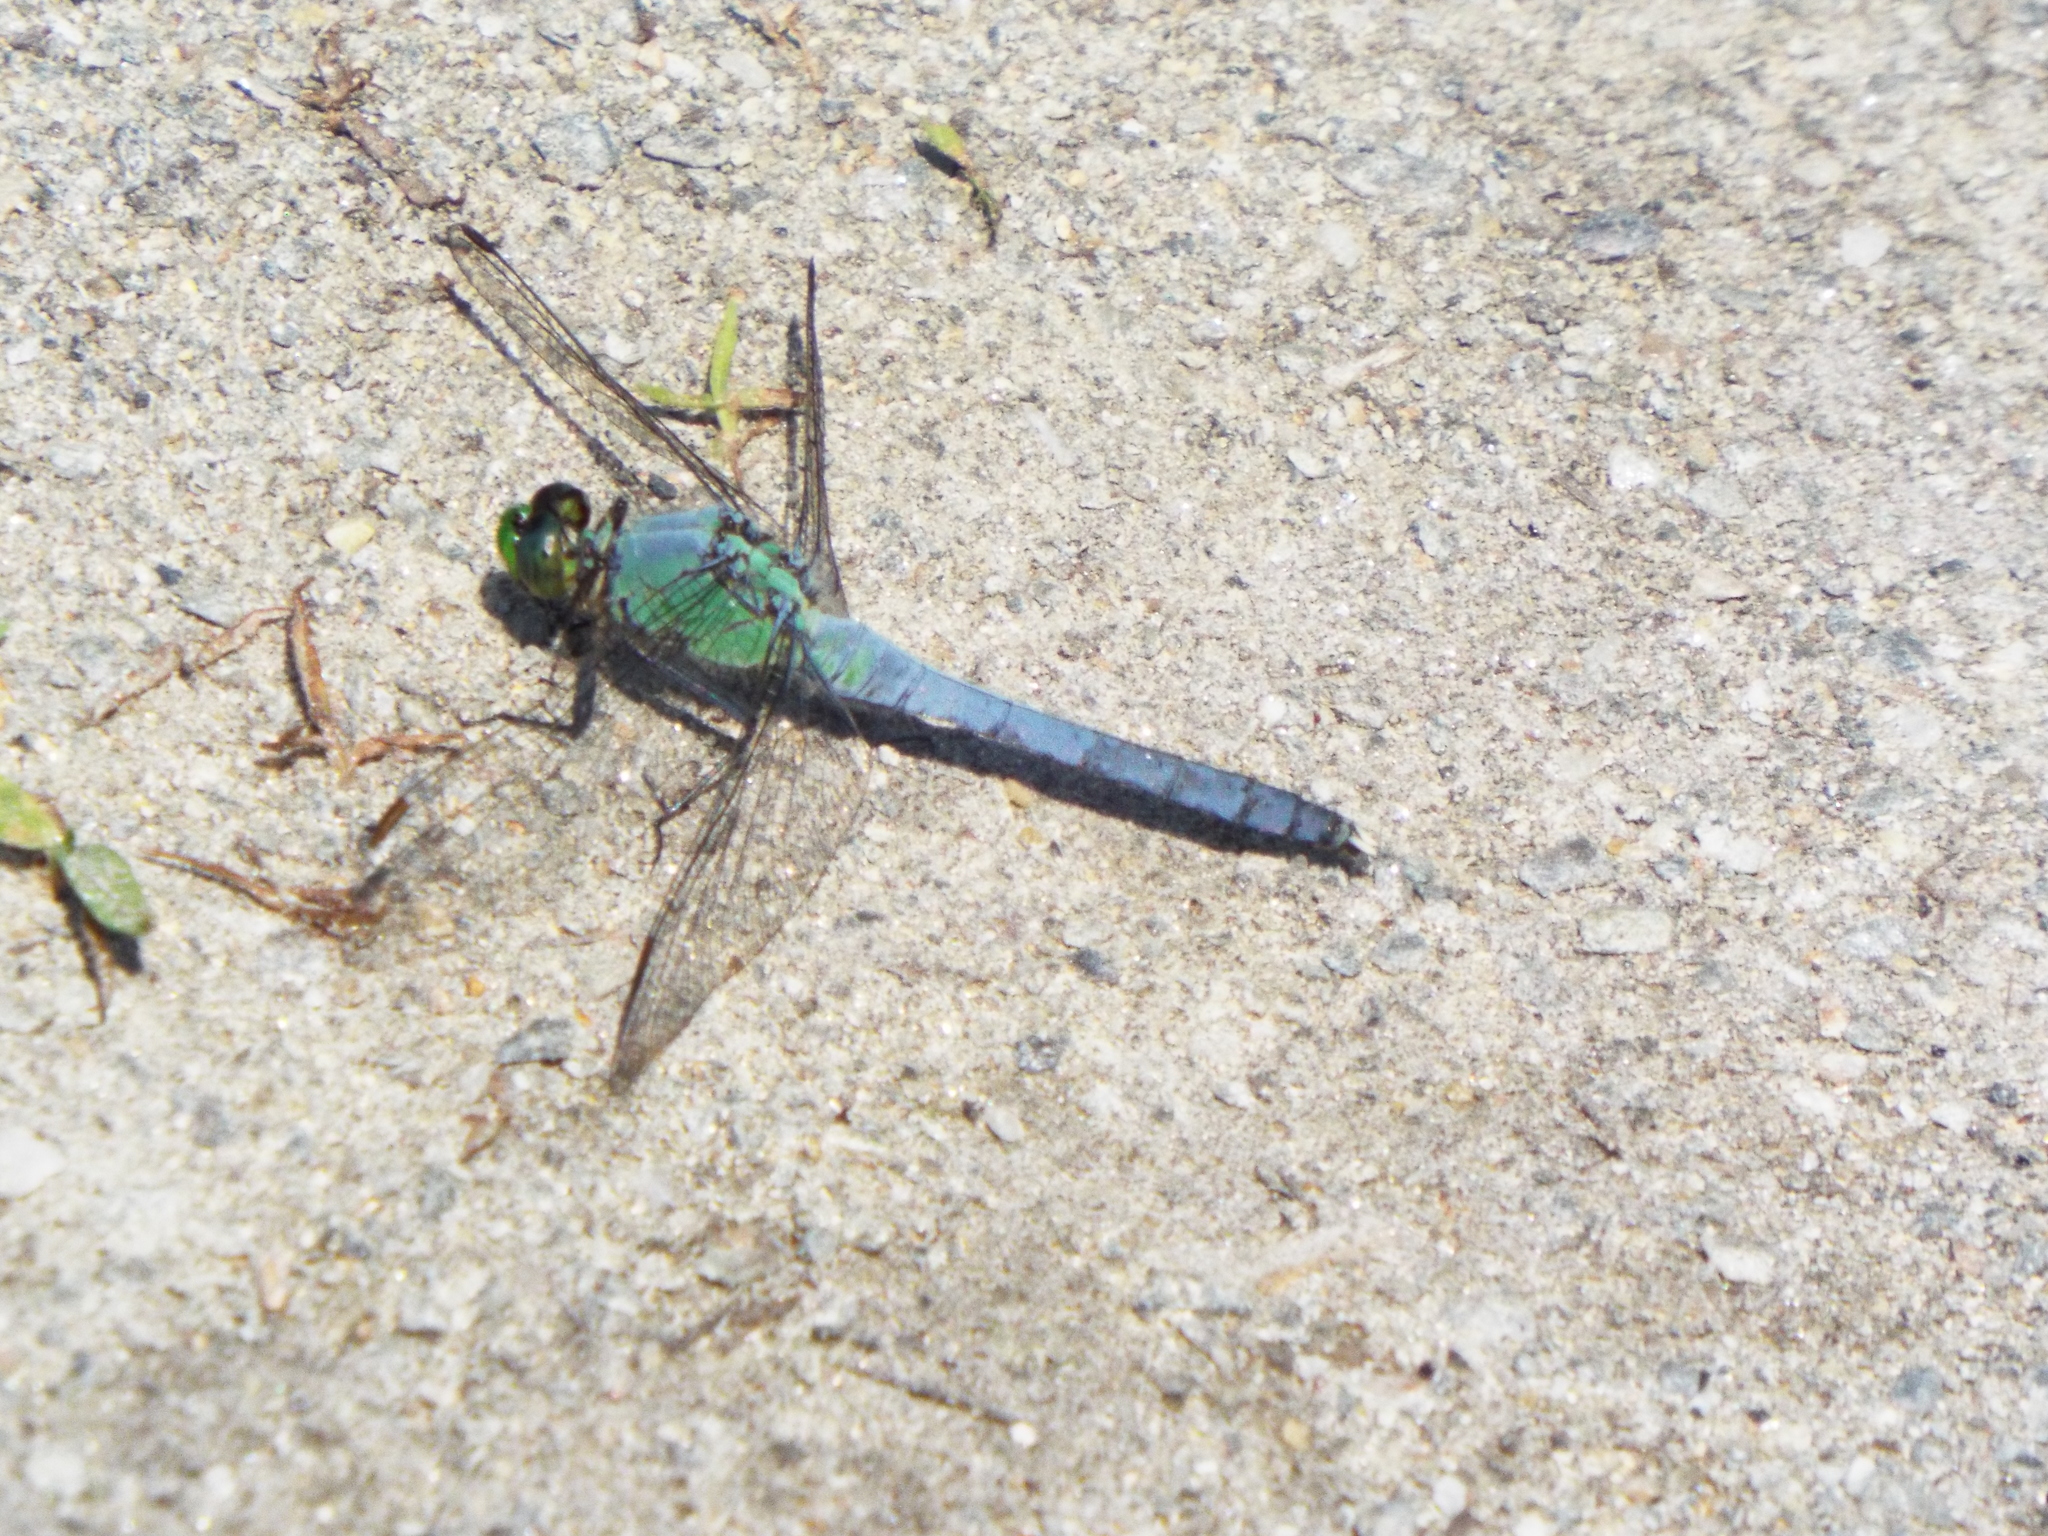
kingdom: Animalia
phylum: Arthropoda
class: Insecta
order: Odonata
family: Libellulidae
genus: Erythemis
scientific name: Erythemis simplicicollis
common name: Eastern pondhawk
